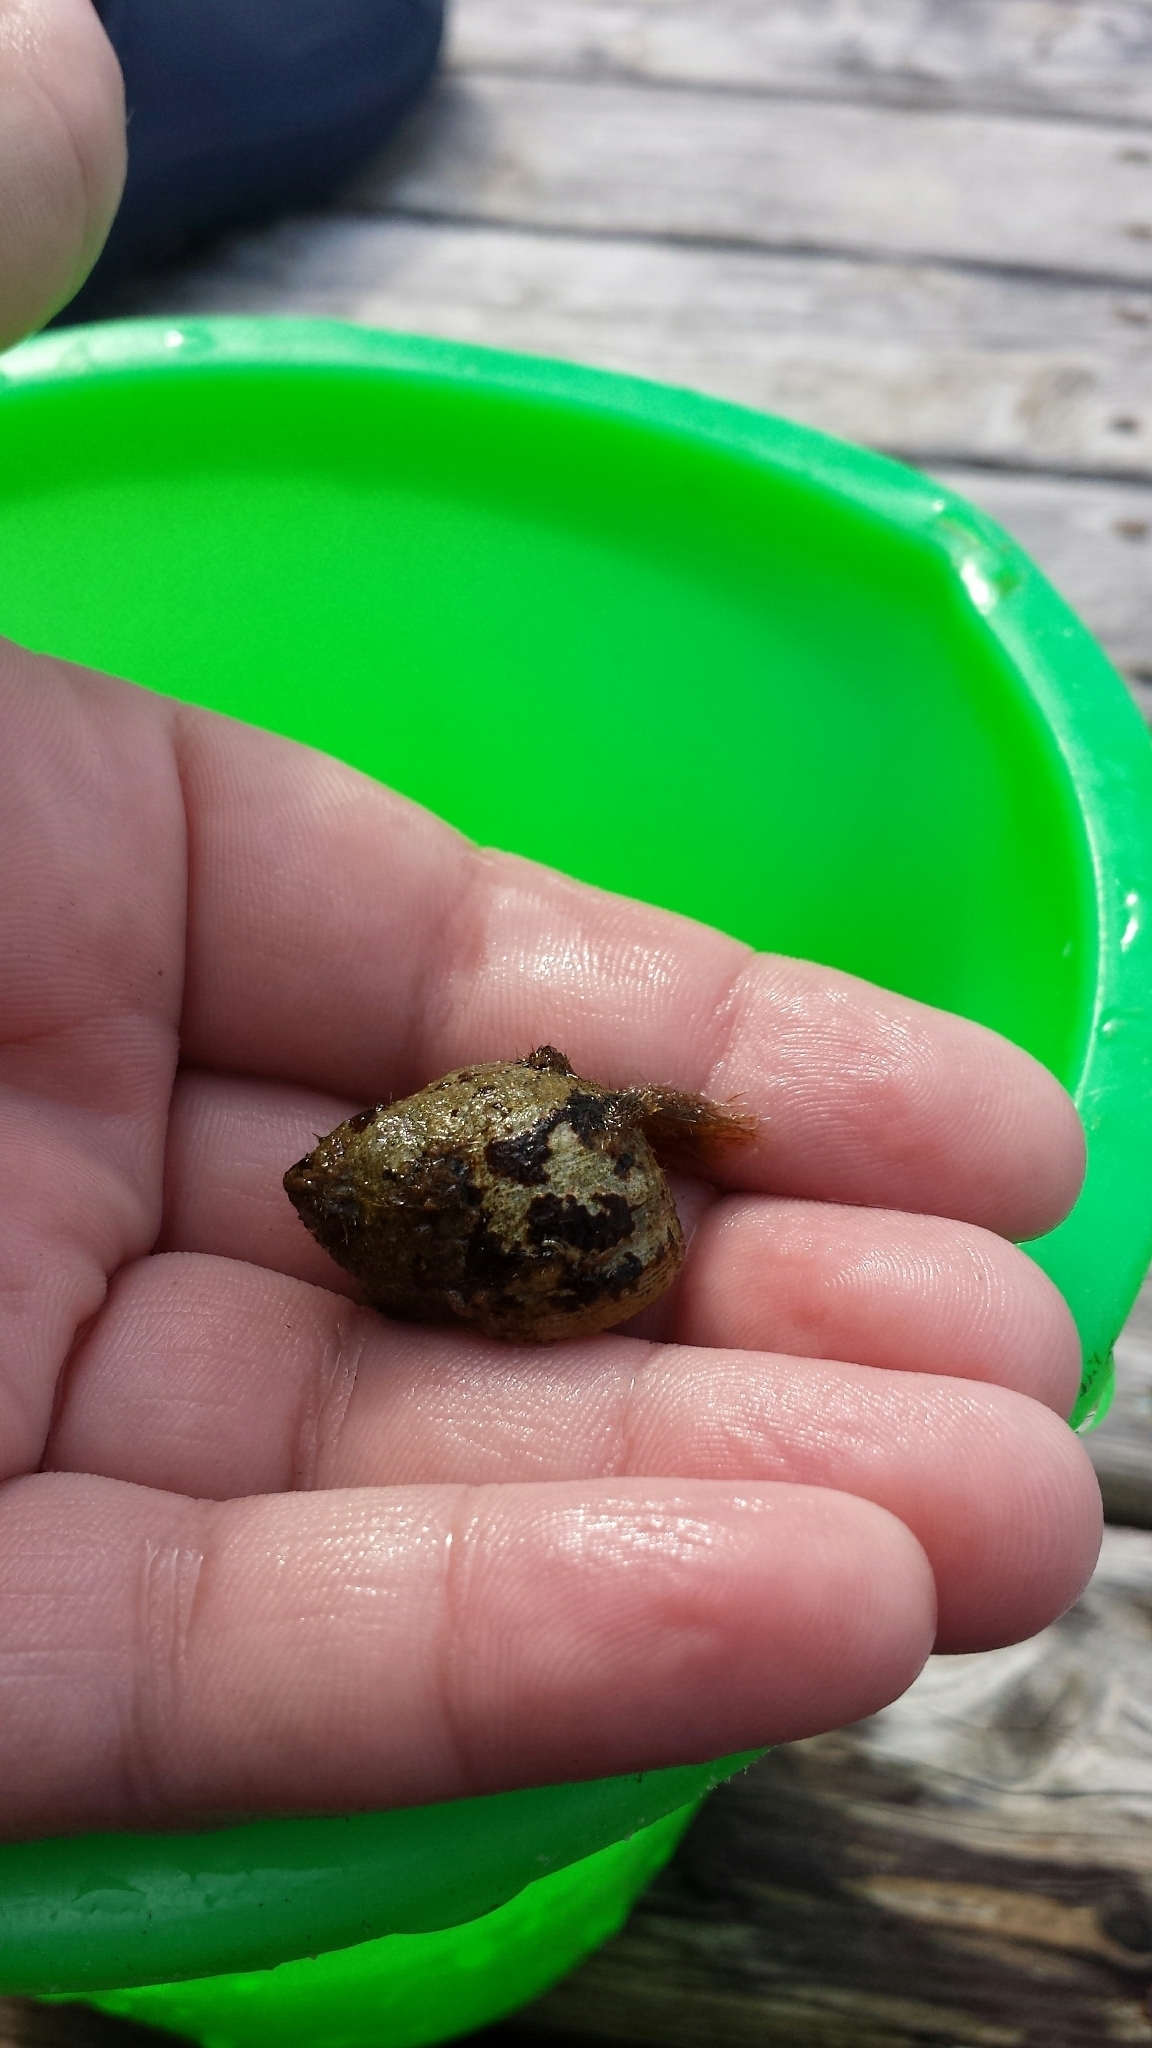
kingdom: Animalia
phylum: Mollusca
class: Gastropoda
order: Littorinimorpha
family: Littorinidae
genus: Littorina
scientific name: Littorina littorea
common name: Common periwinkle
